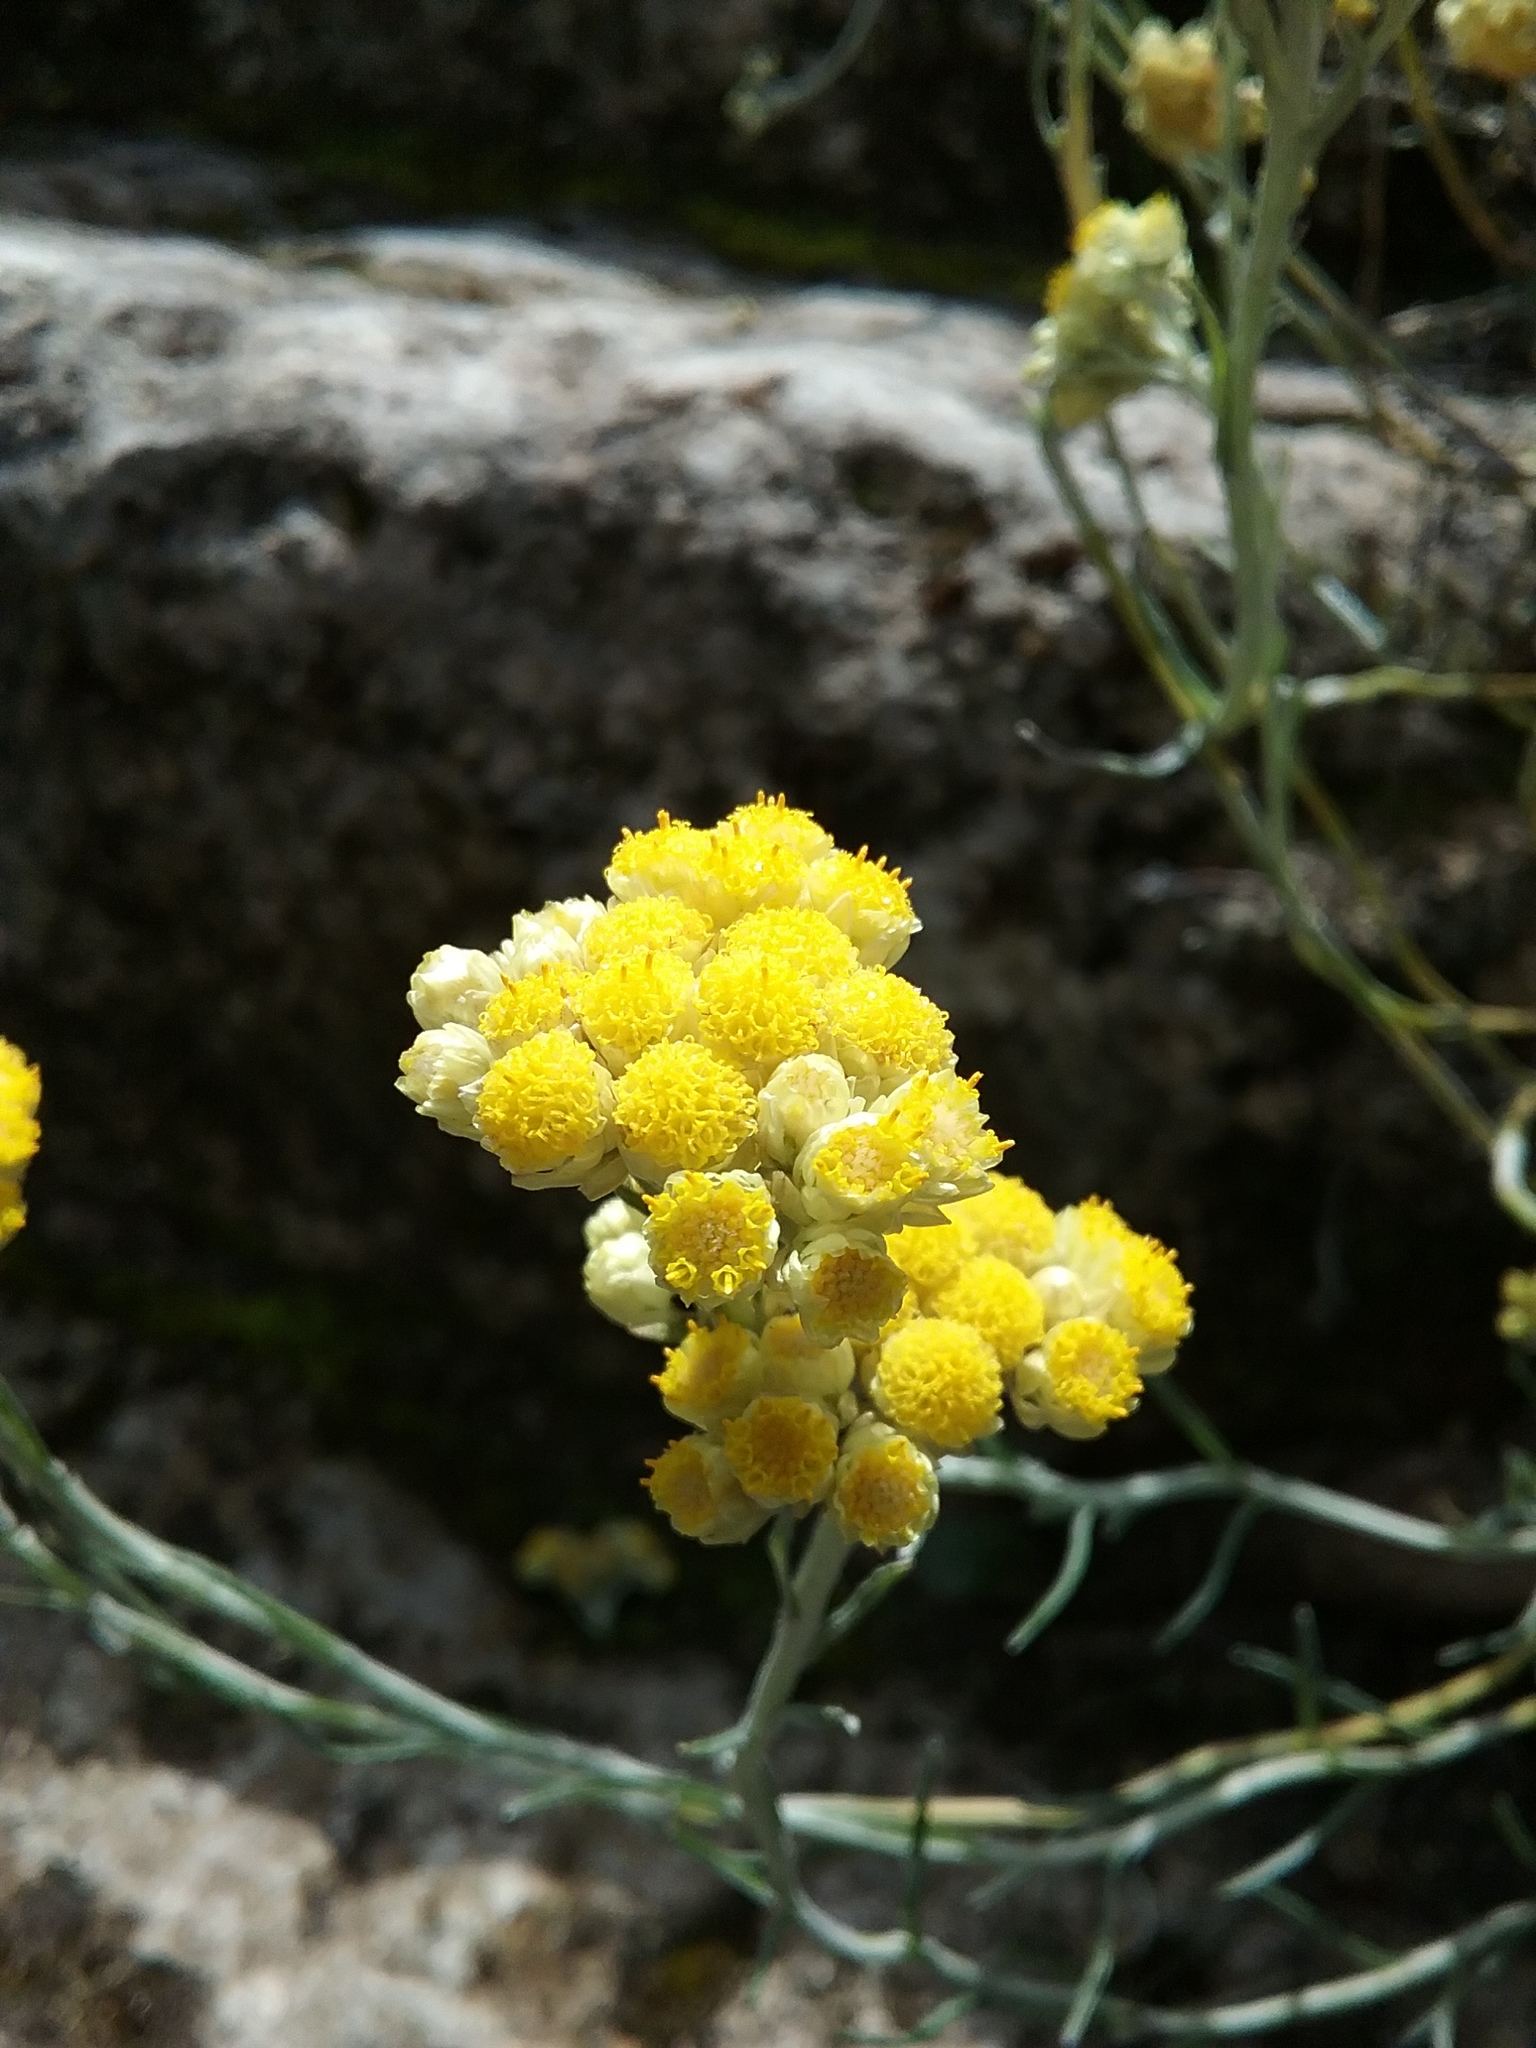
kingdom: Plantae
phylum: Tracheophyta
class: Magnoliopsida
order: Asterales
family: Asteraceae
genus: Helichrysum
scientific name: Helichrysum stoechas
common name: Goldilocks
